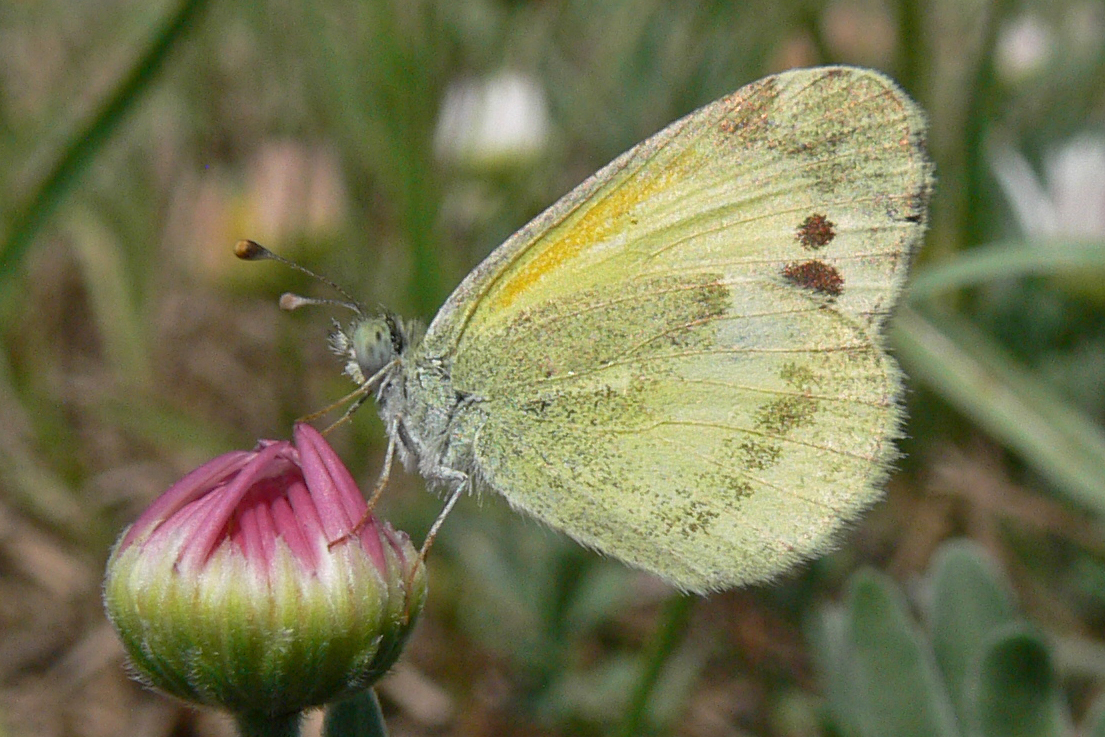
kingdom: Animalia
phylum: Arthropoda
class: Insecta
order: Lepidoptera
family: Pieridae
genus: Nathalis
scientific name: Nathalis iole
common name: Dainty sulphur
